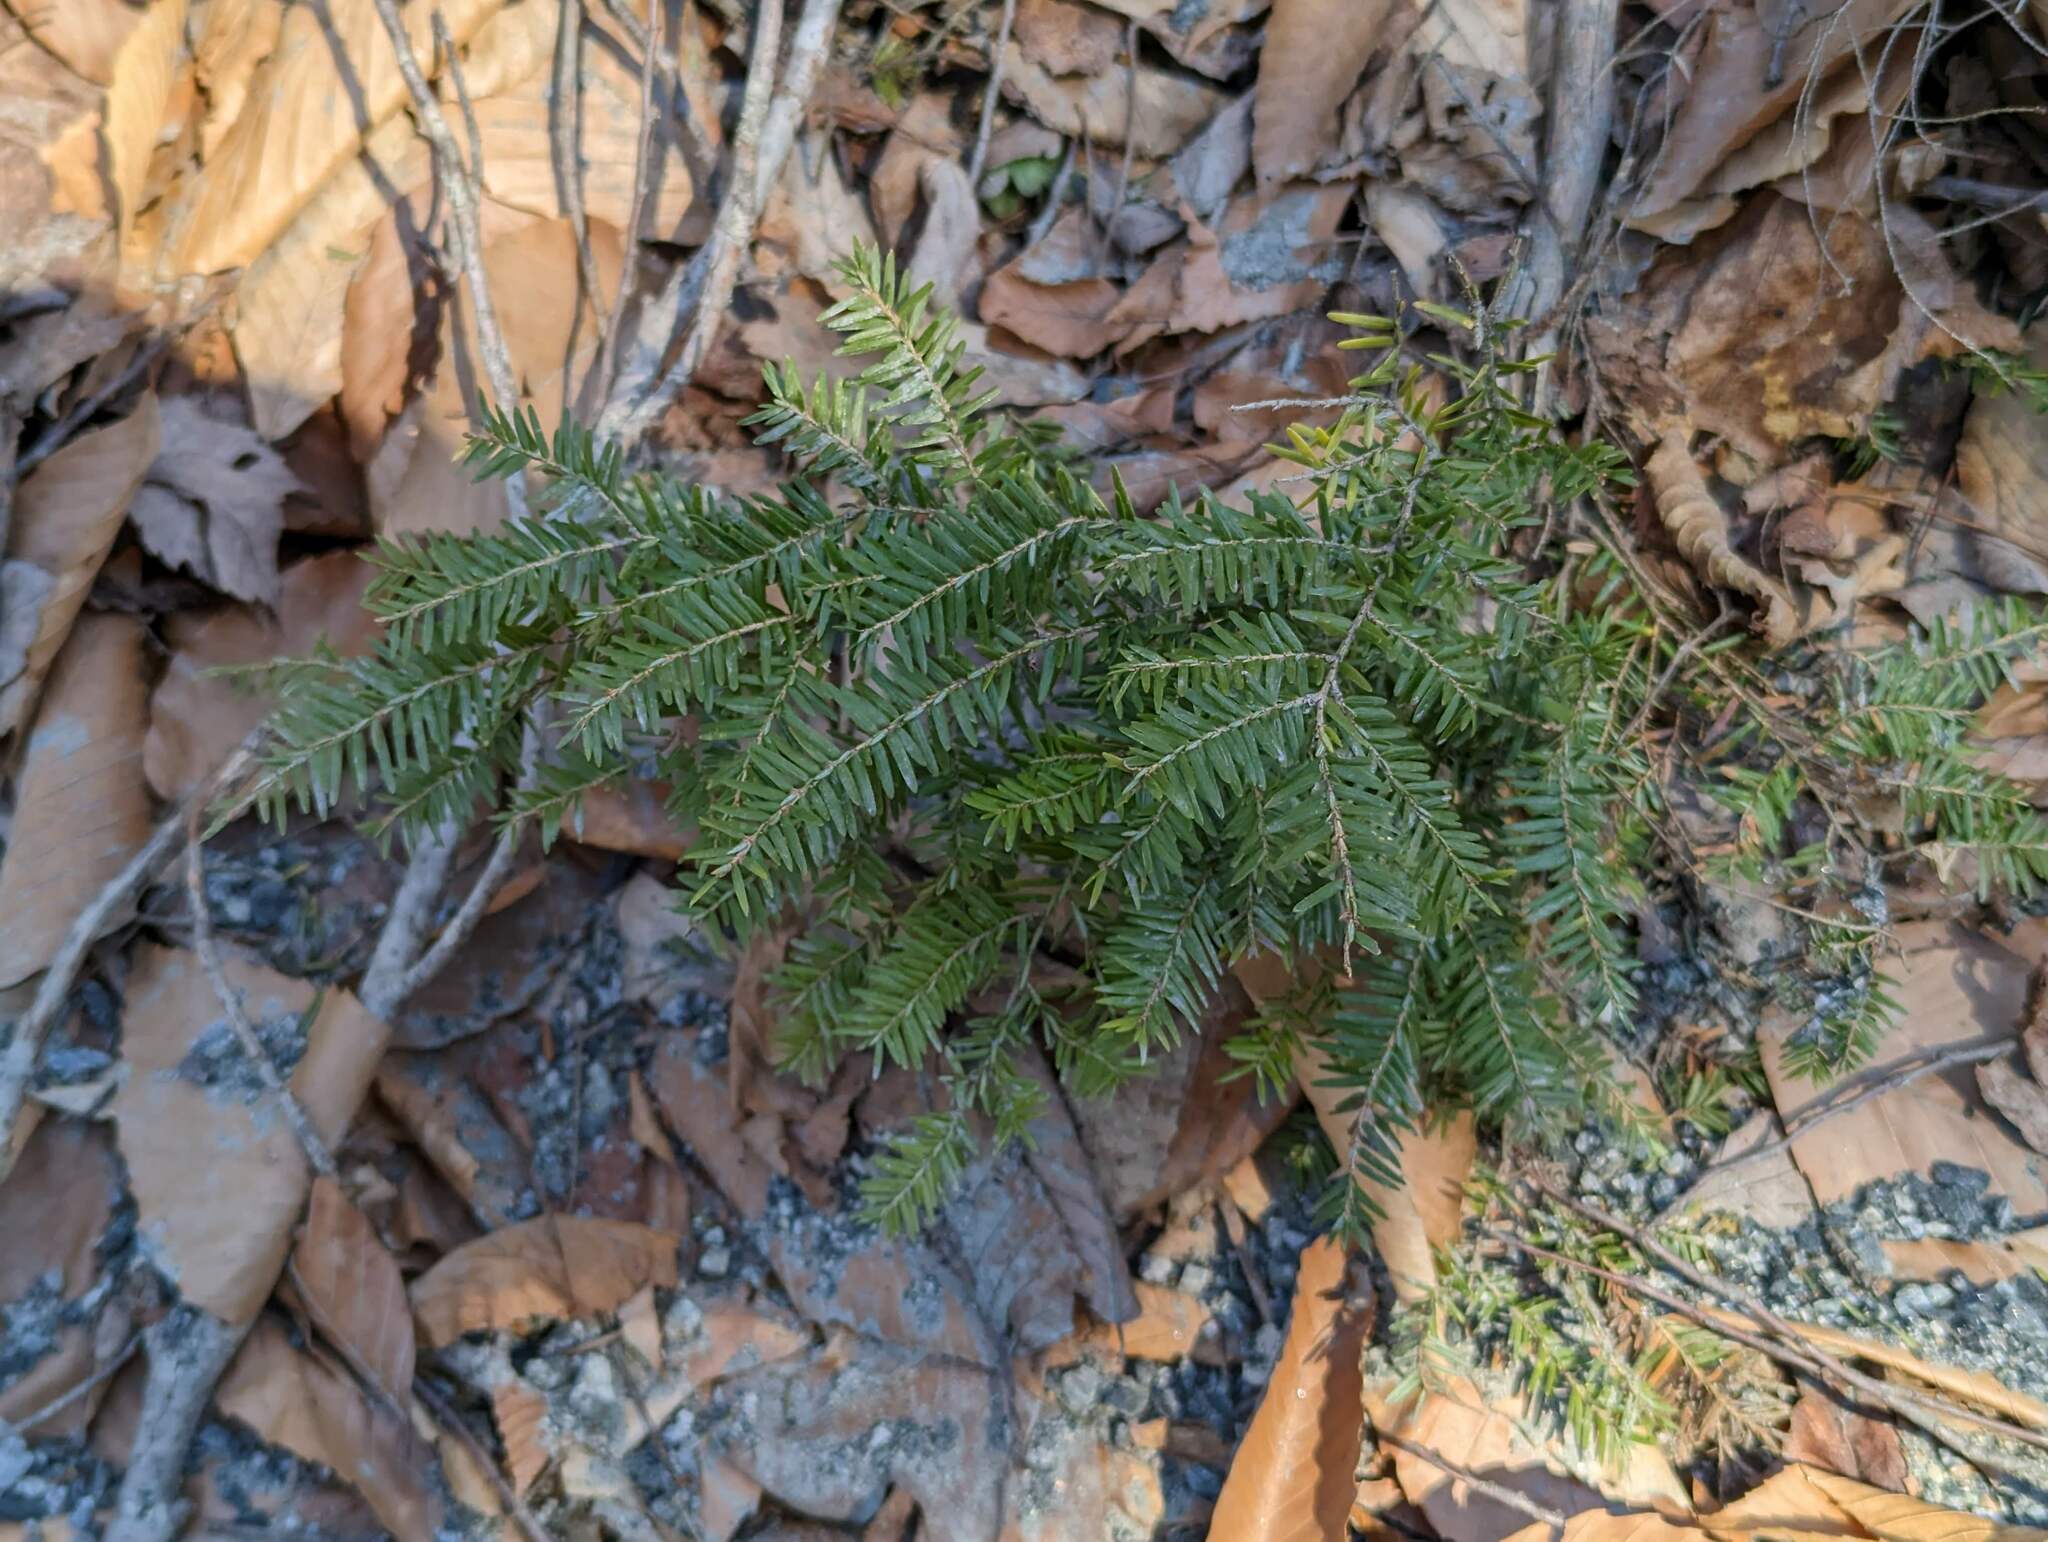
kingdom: Plantae
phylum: Tracheophyta
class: Pinopsida
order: Pinales
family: Pinaceae
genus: Tsuga
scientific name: Tsuga canadensis
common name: Eastern hemlock
